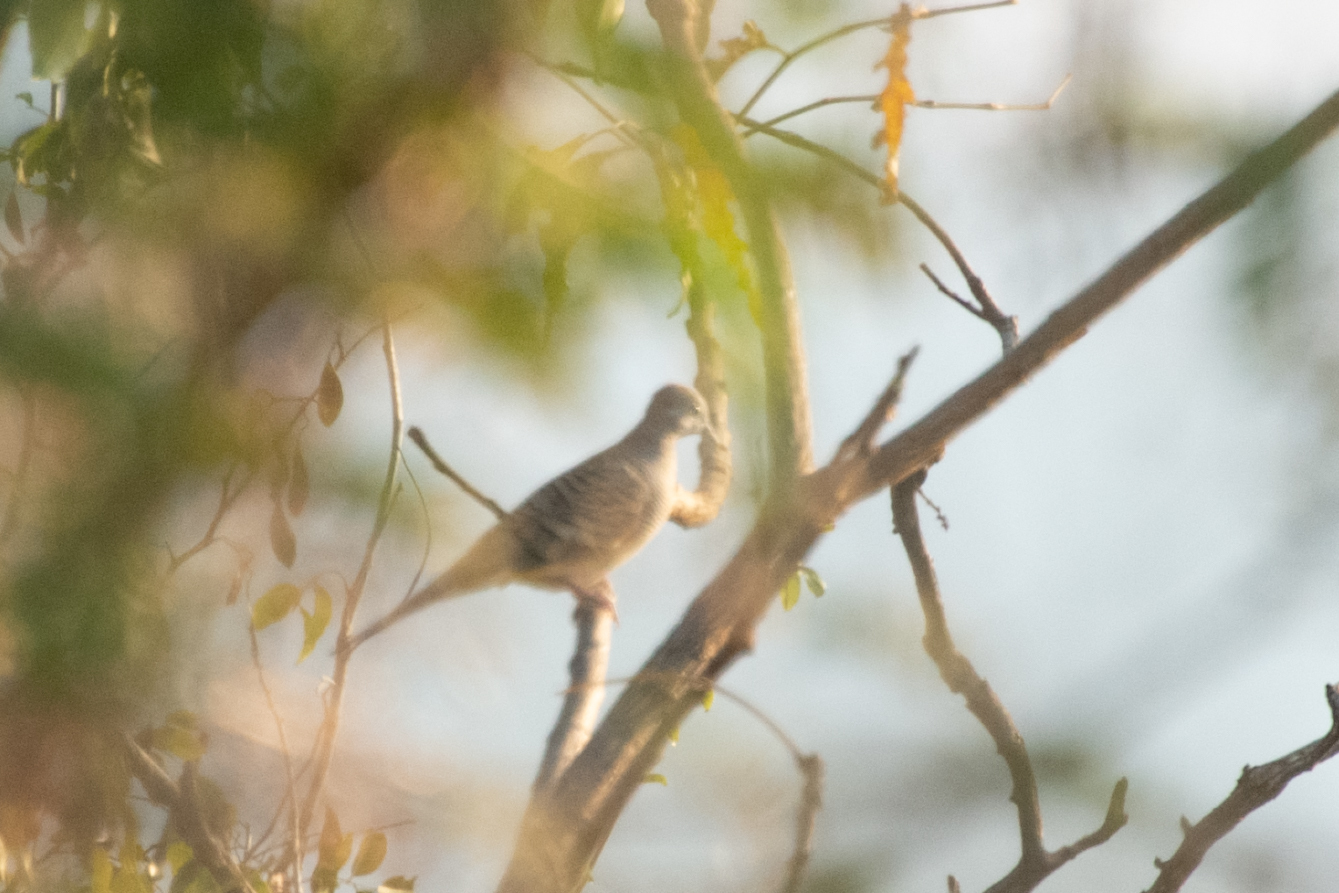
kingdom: Animalia
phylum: Chordata
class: Aves
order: Columbiformes
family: Columbidae
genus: Geopelia
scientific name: Geopelia striata
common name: Zebra dove
